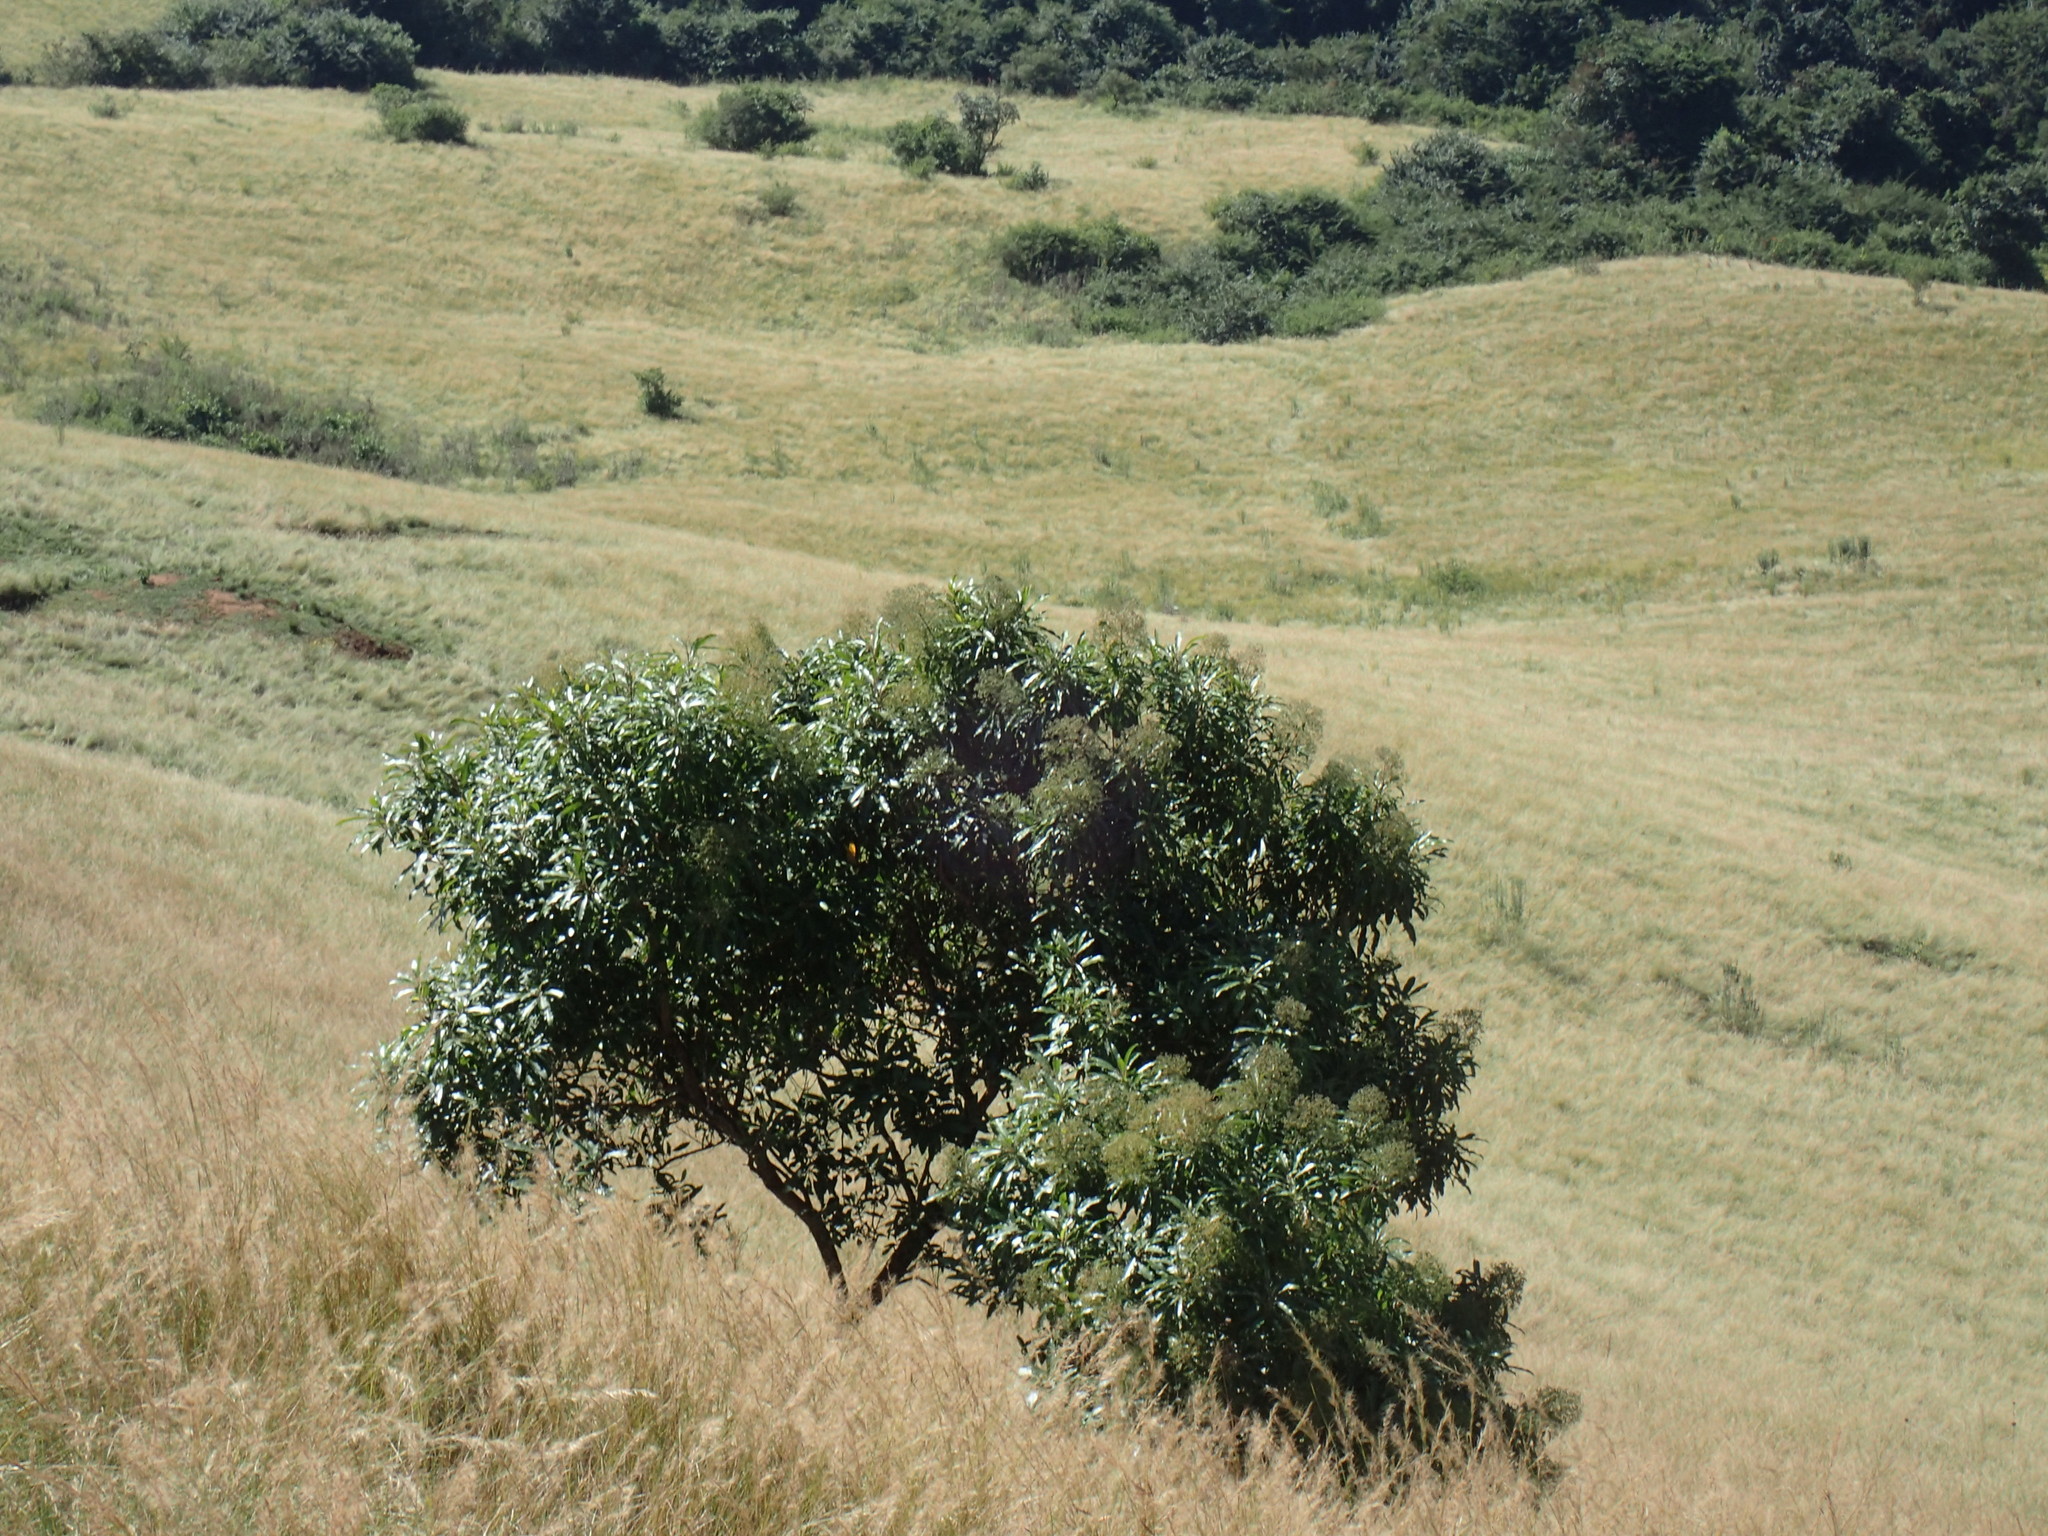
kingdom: Plantae
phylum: Tracheophyta
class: Magnoliopsida
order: Myrtales
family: Myrtaceae
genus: Heteropyxis
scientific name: Heteropyxis natalensis
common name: Lavender tree
